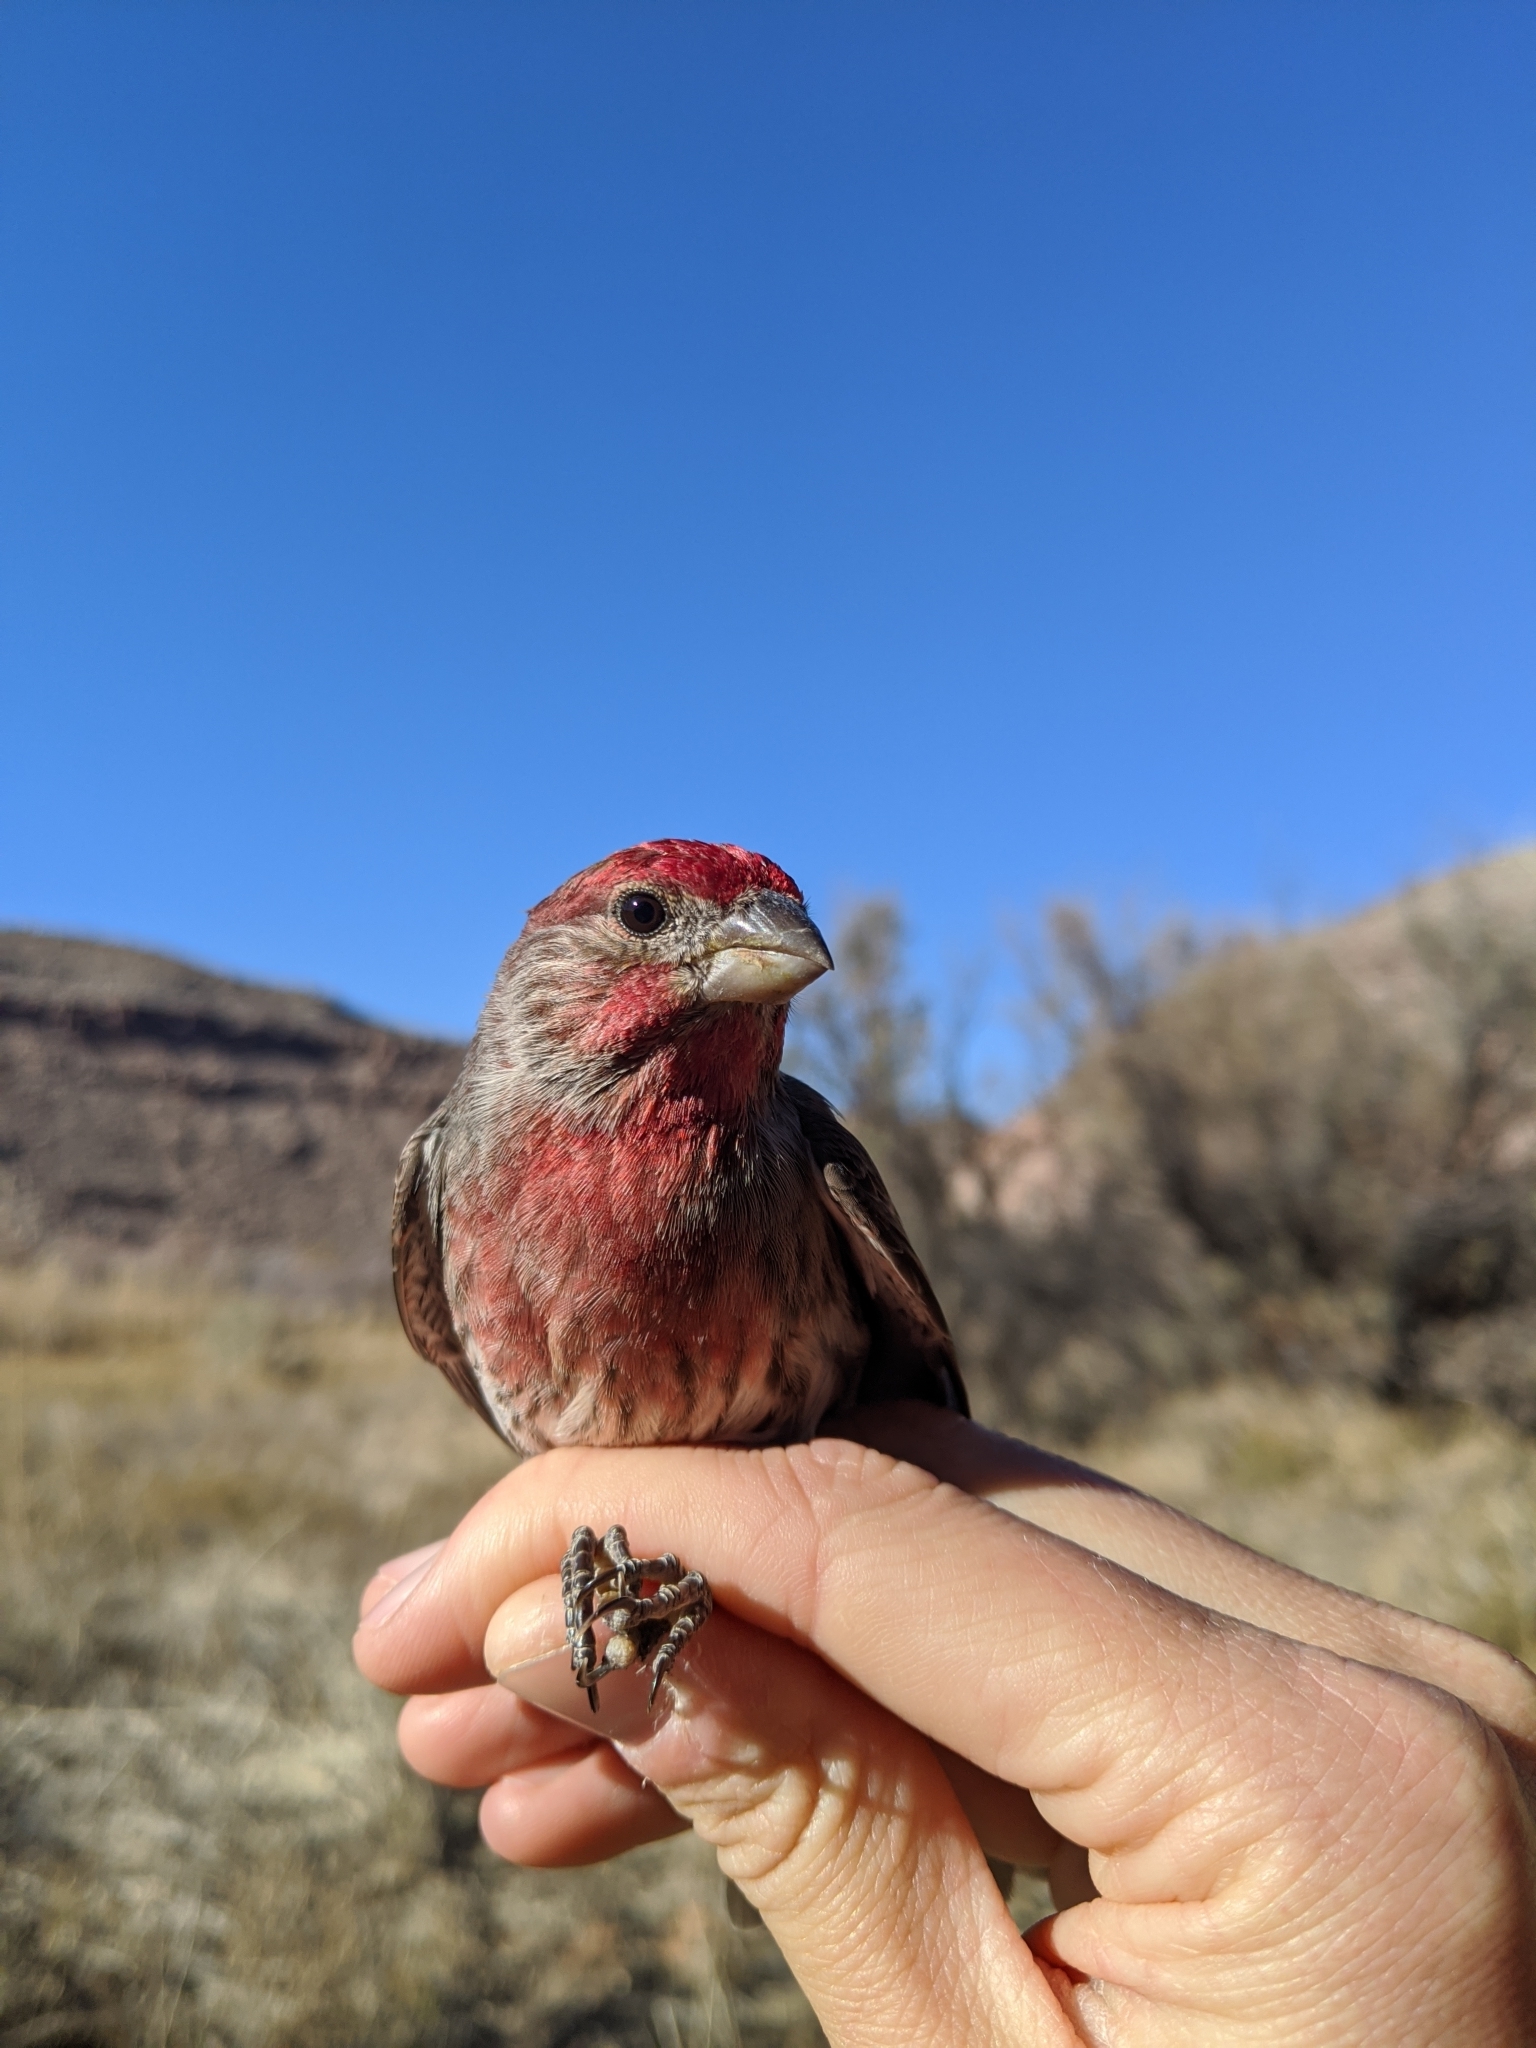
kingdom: Animalia
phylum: Chordata
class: Aves
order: Passeriformes
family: Fringillidae
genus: Haemorhous
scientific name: Haemorhous mexicanus
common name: House finch
